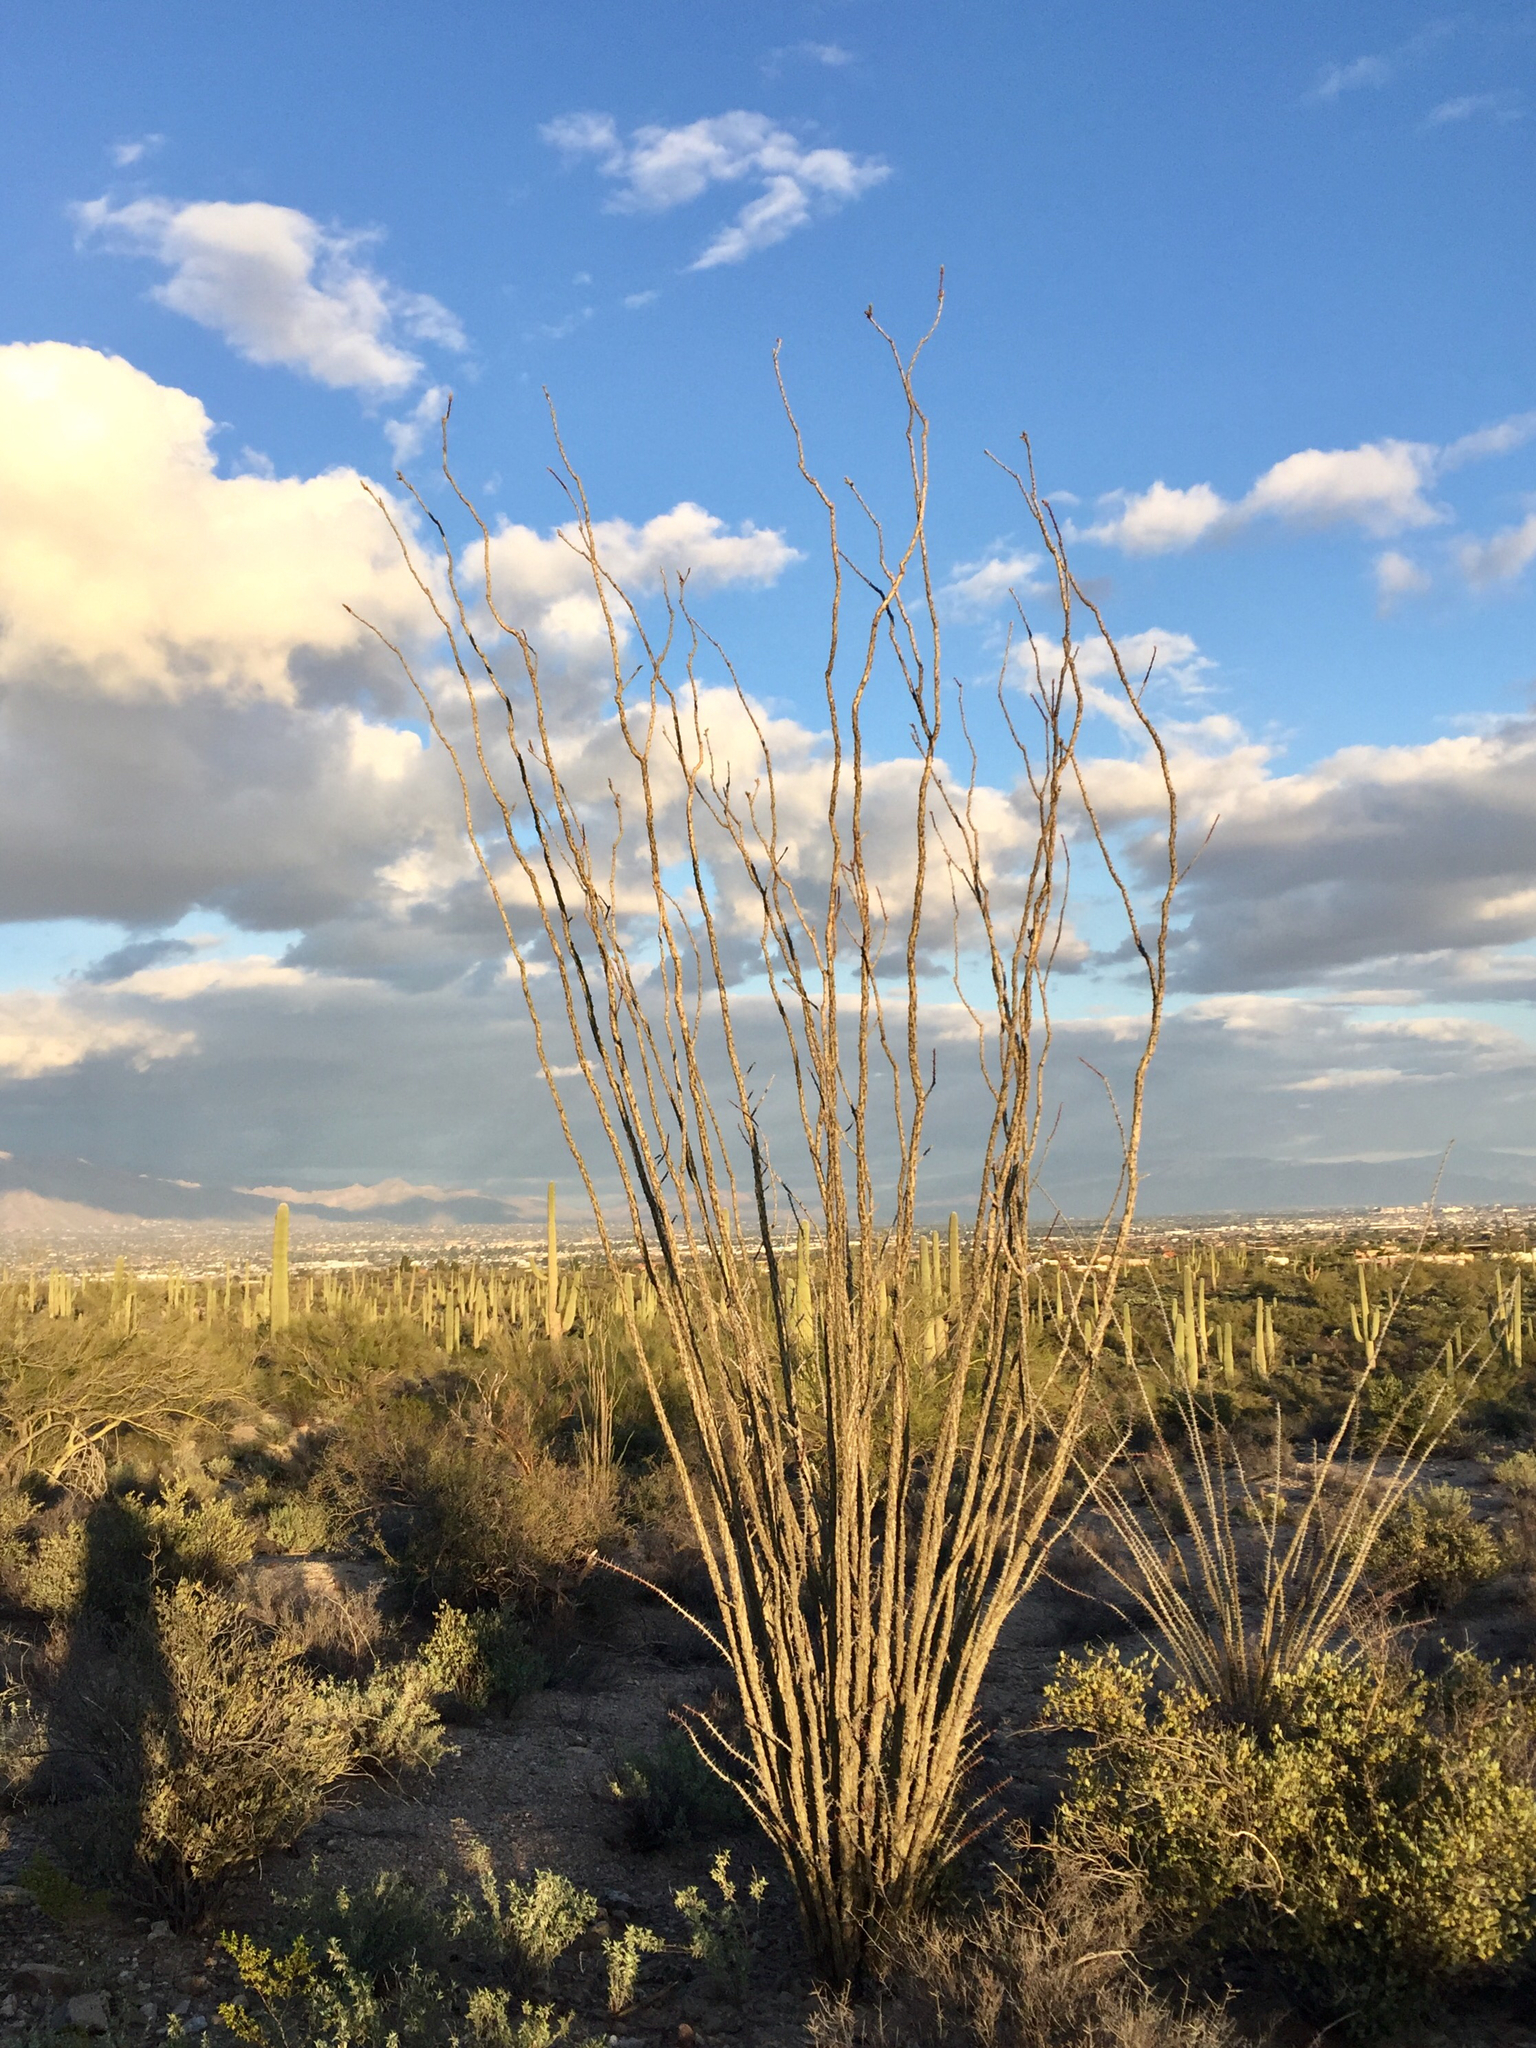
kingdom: Plantae
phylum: Tracheophyta
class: Magnoliopsida
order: Ericales
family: Fouquieriaceae
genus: Fouquieria
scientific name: Fouquieria splendens
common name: Vine-cactus
